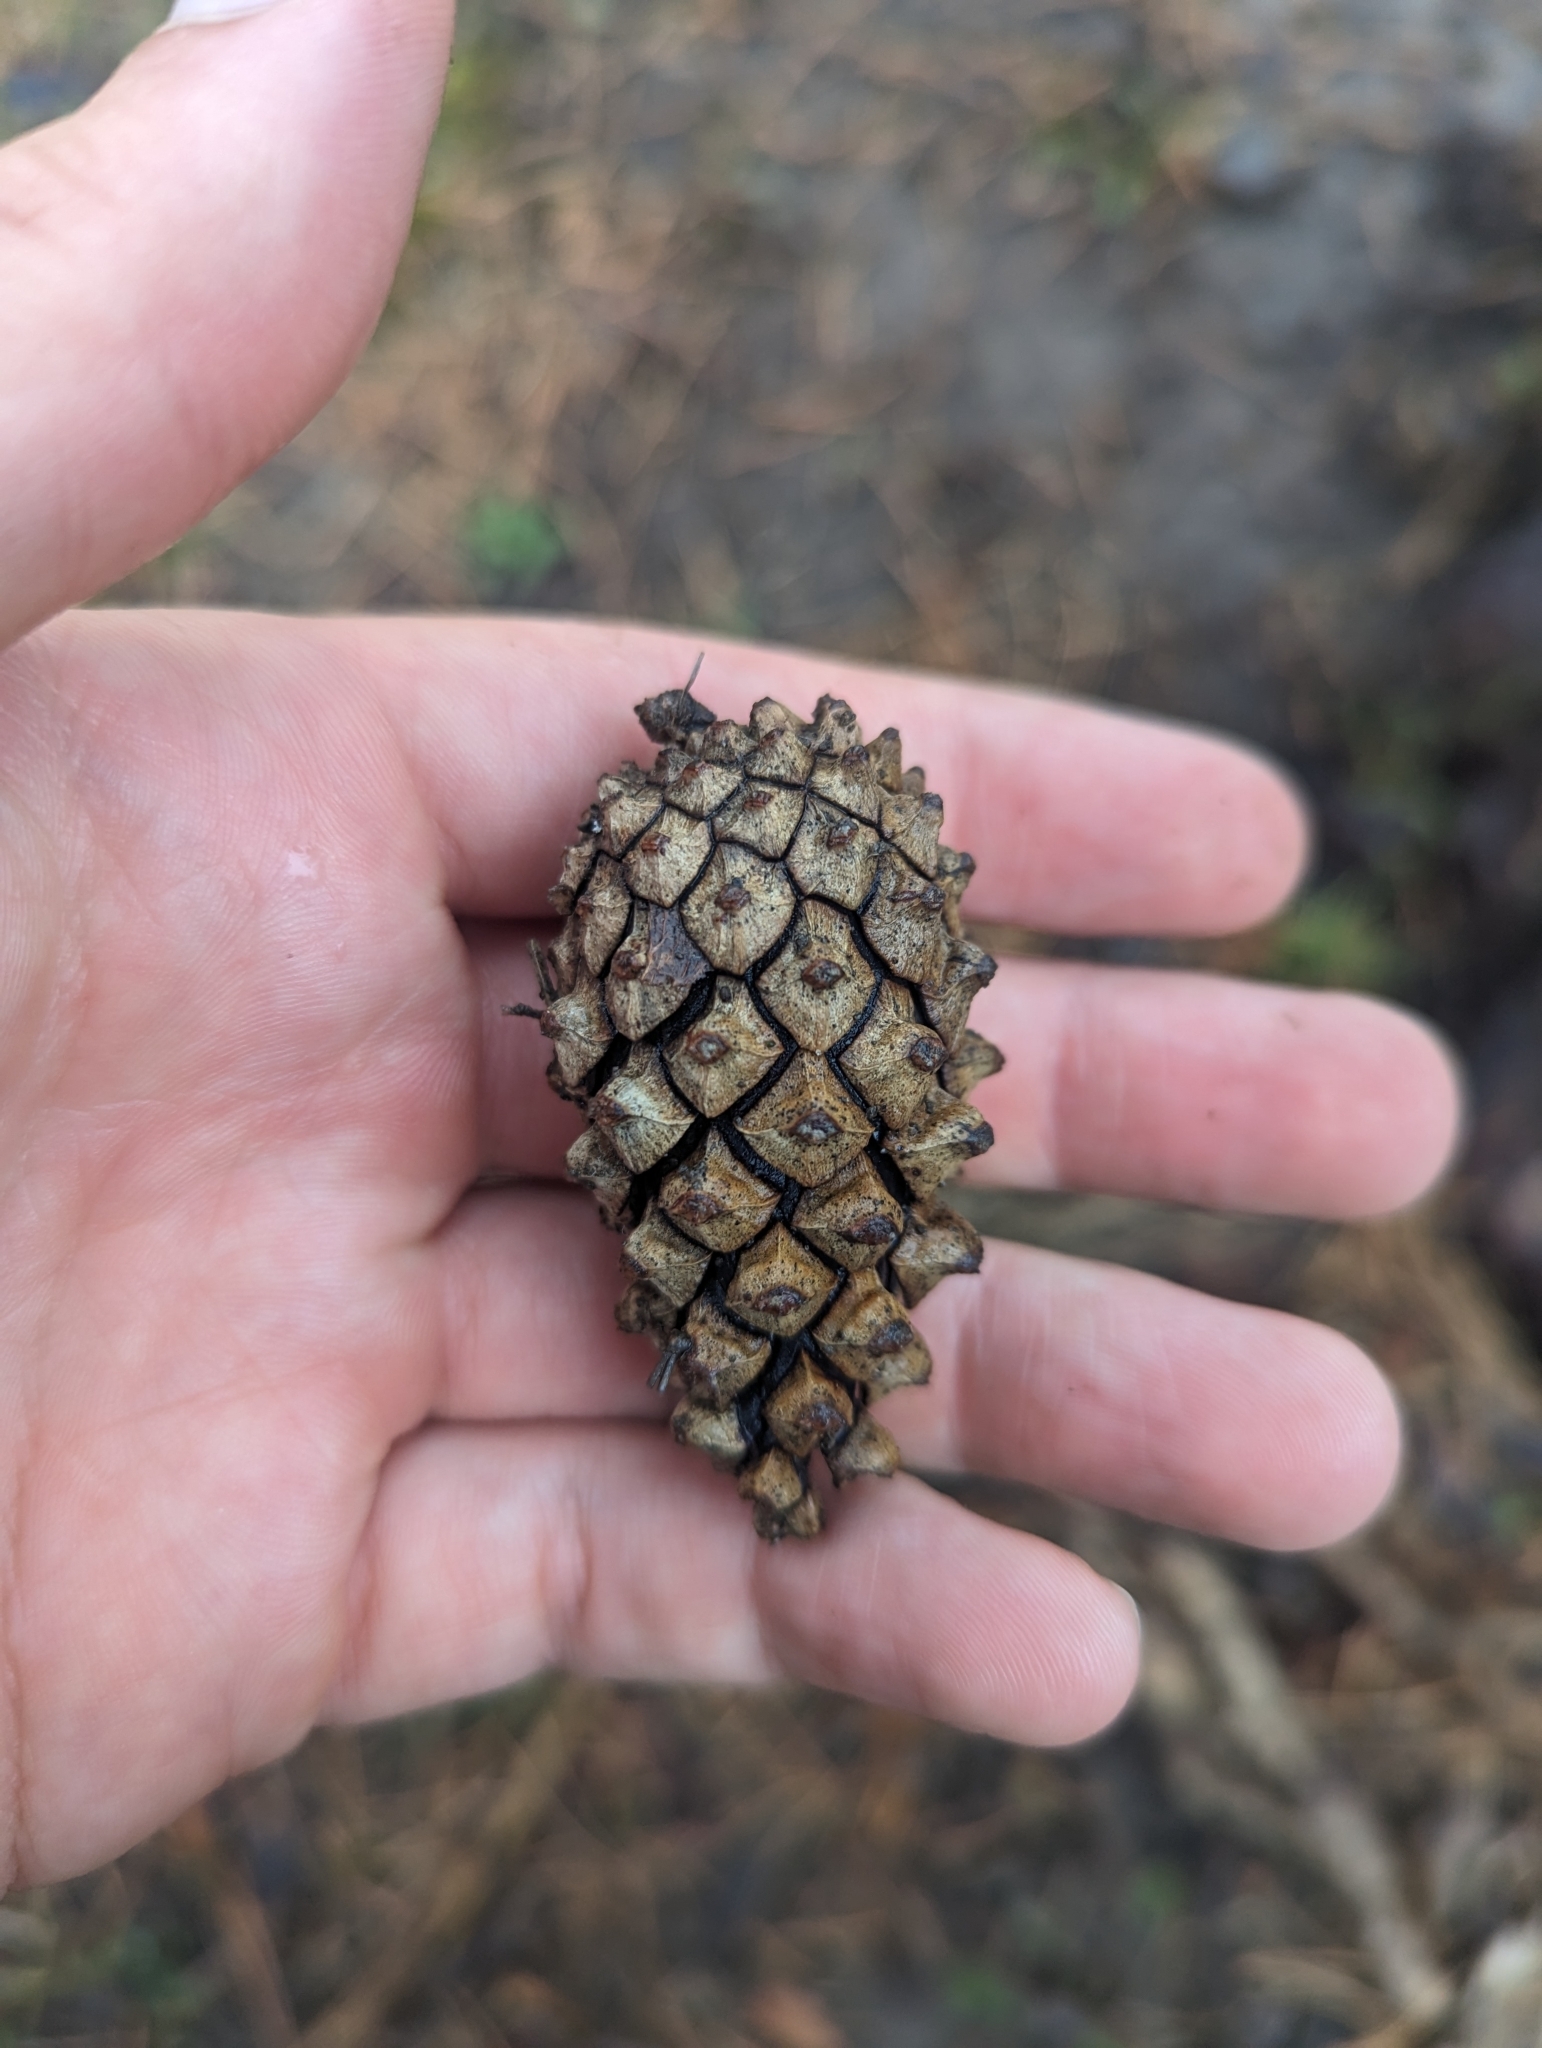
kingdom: Plantae
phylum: Tracheophyta
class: Pinopsida
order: Pinales
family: Pinaceae
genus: Pinus
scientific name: Pinus sylvestris
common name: Scots pine
